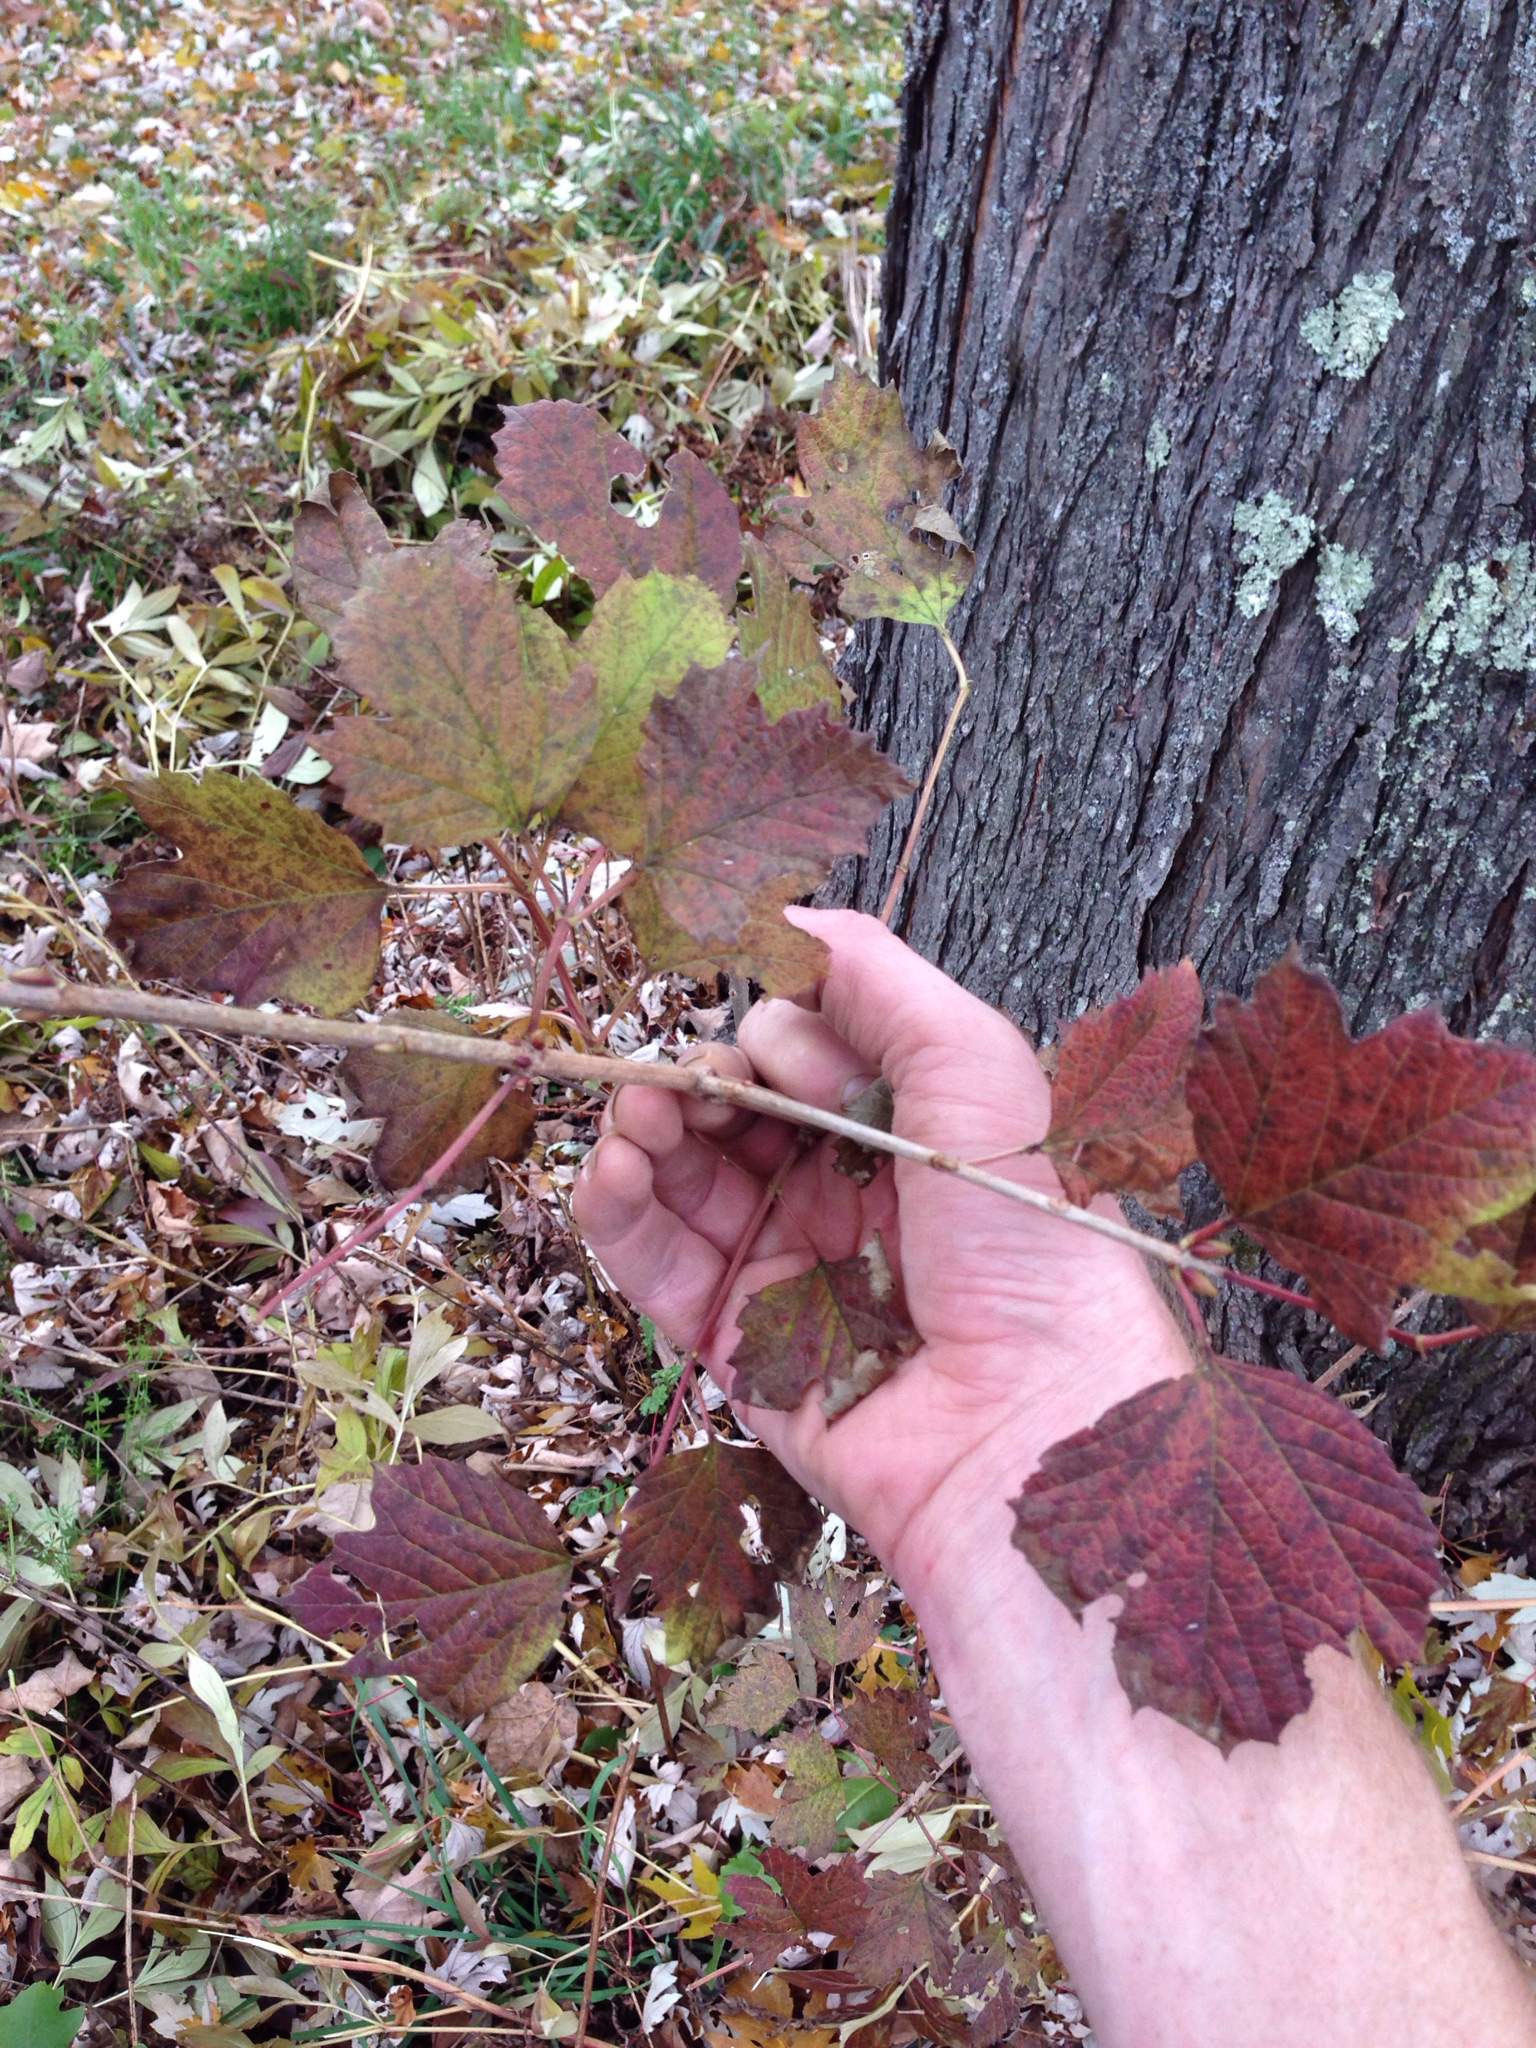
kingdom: Plantae
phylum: Tracheophyta
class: Magnoliopsida
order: Dipsacales
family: Viburnaceae
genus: Viburnum
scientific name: Viburnum opulus
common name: Guelder-rose
